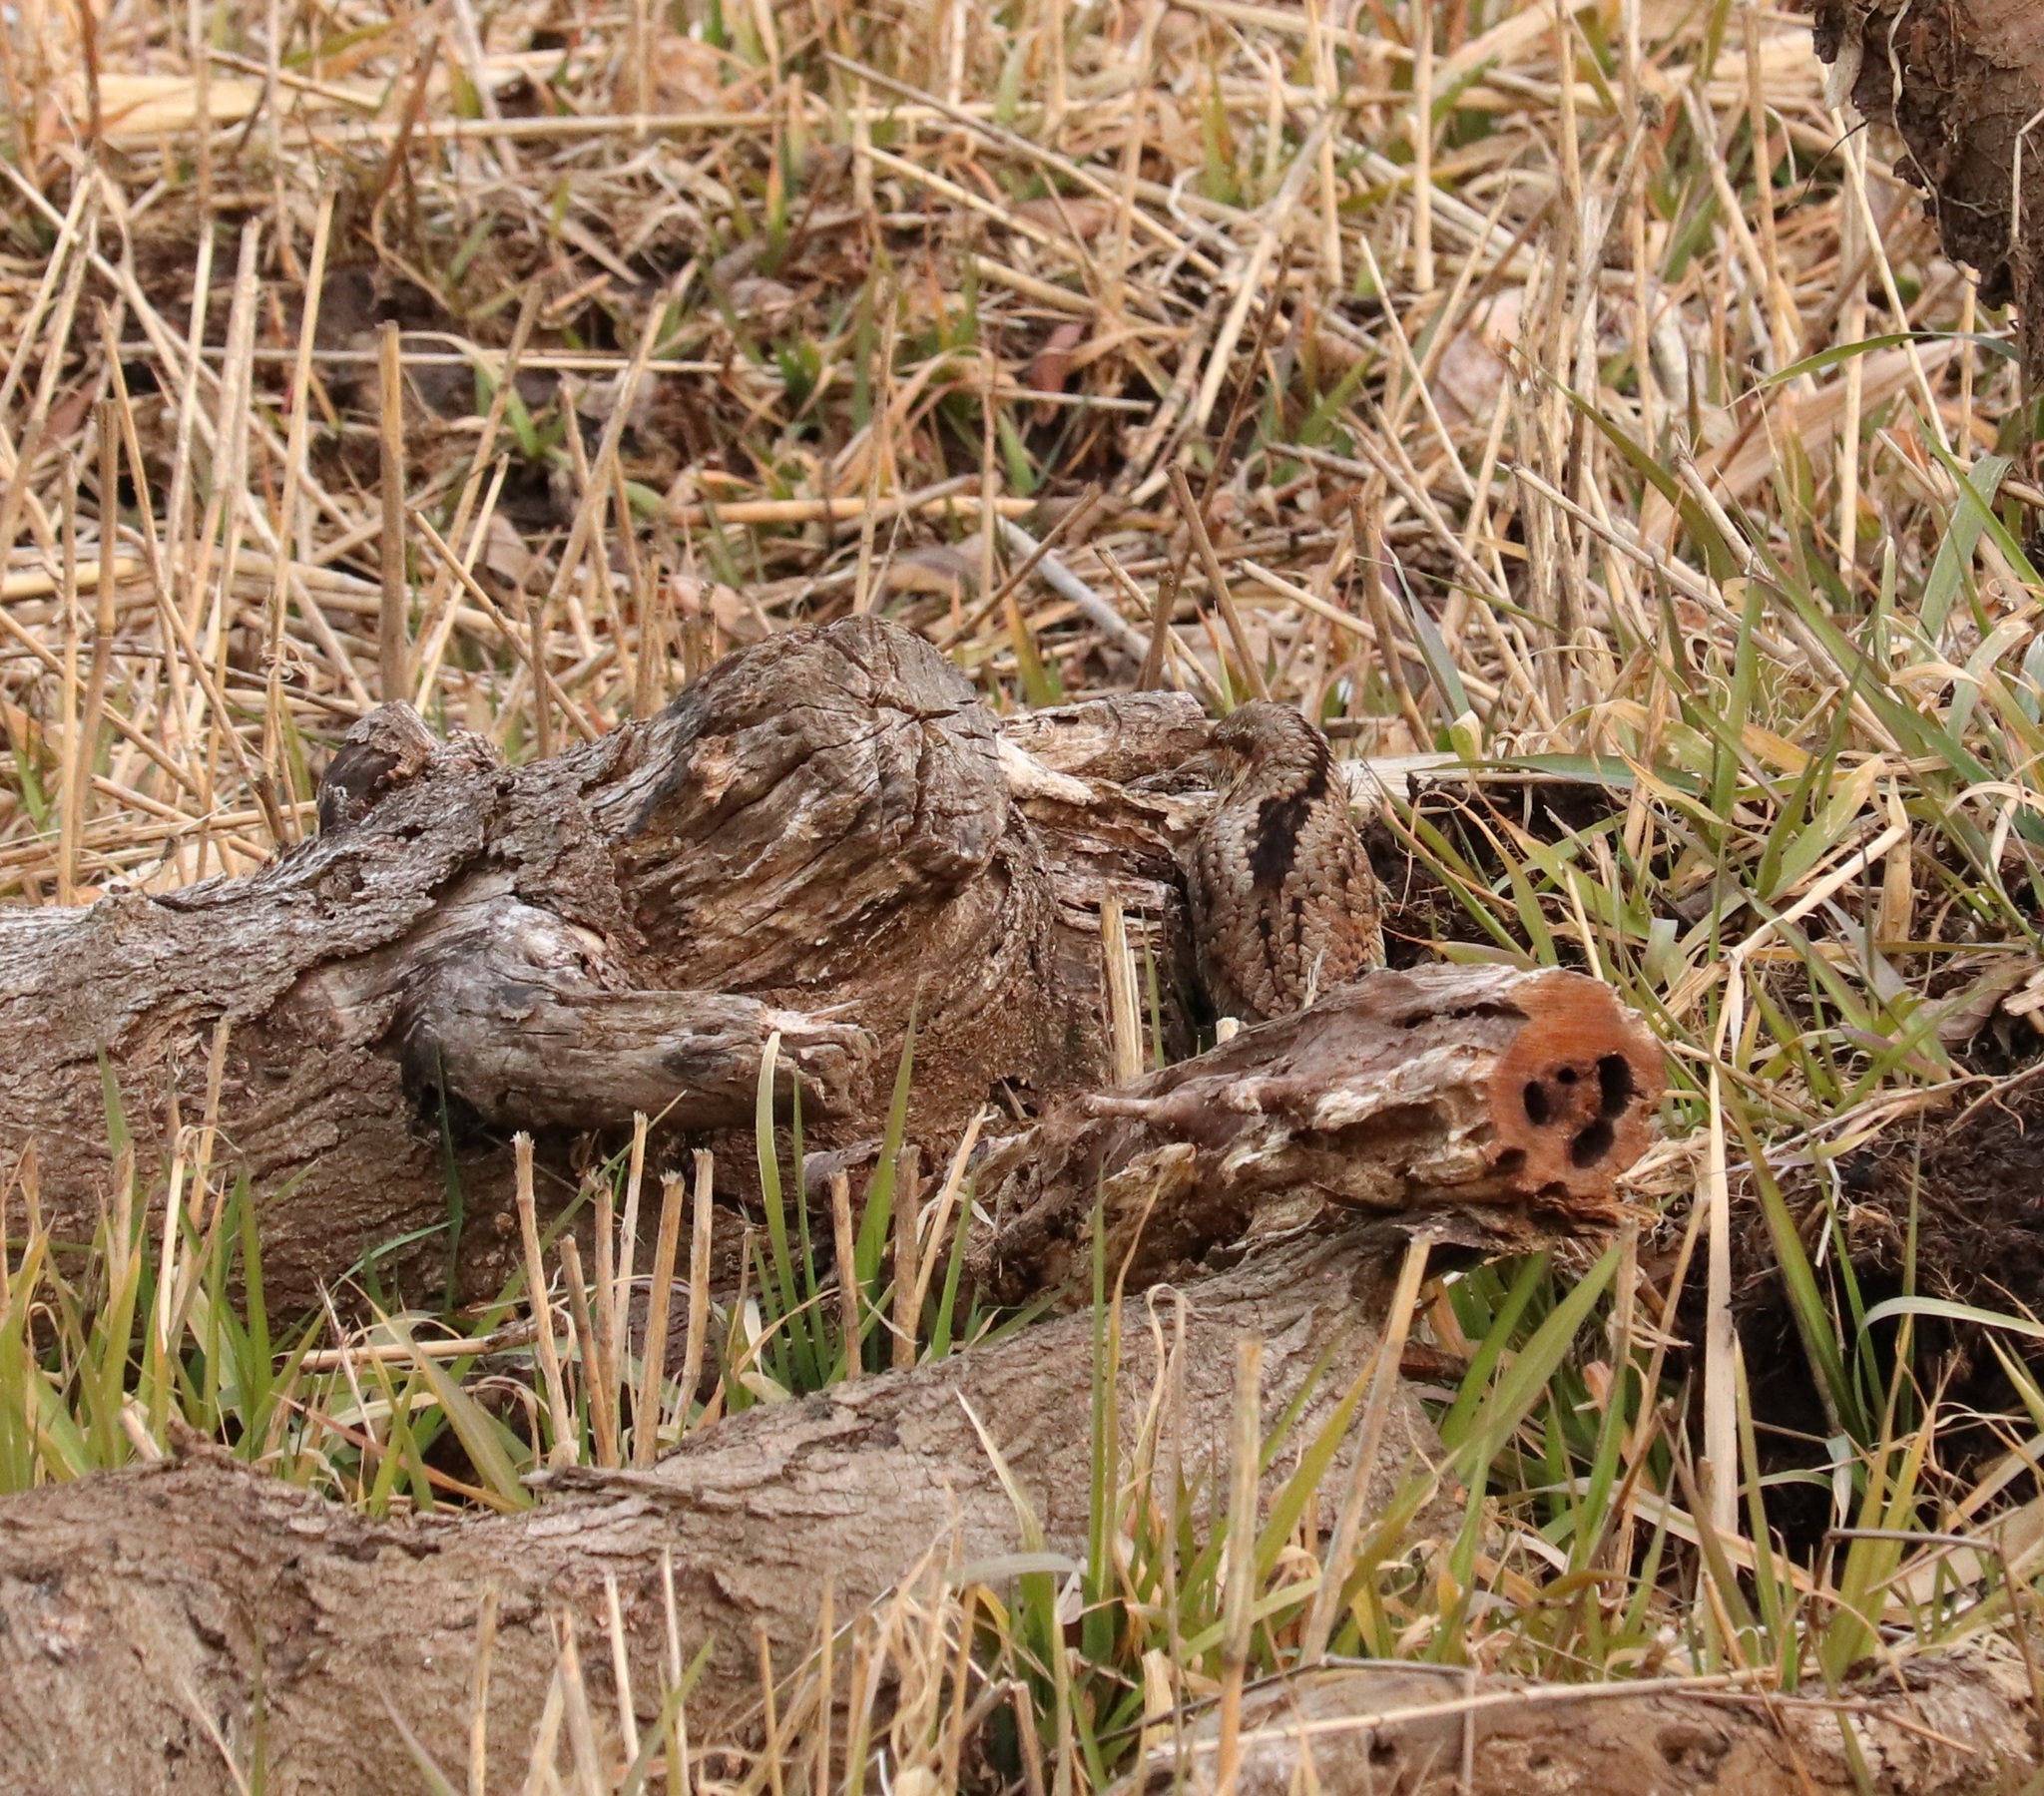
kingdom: Animalia
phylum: Chordata
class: Aves
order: Piciformes
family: Picidae
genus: Jynx
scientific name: Jynx torquilla
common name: Eurasian wryneck
